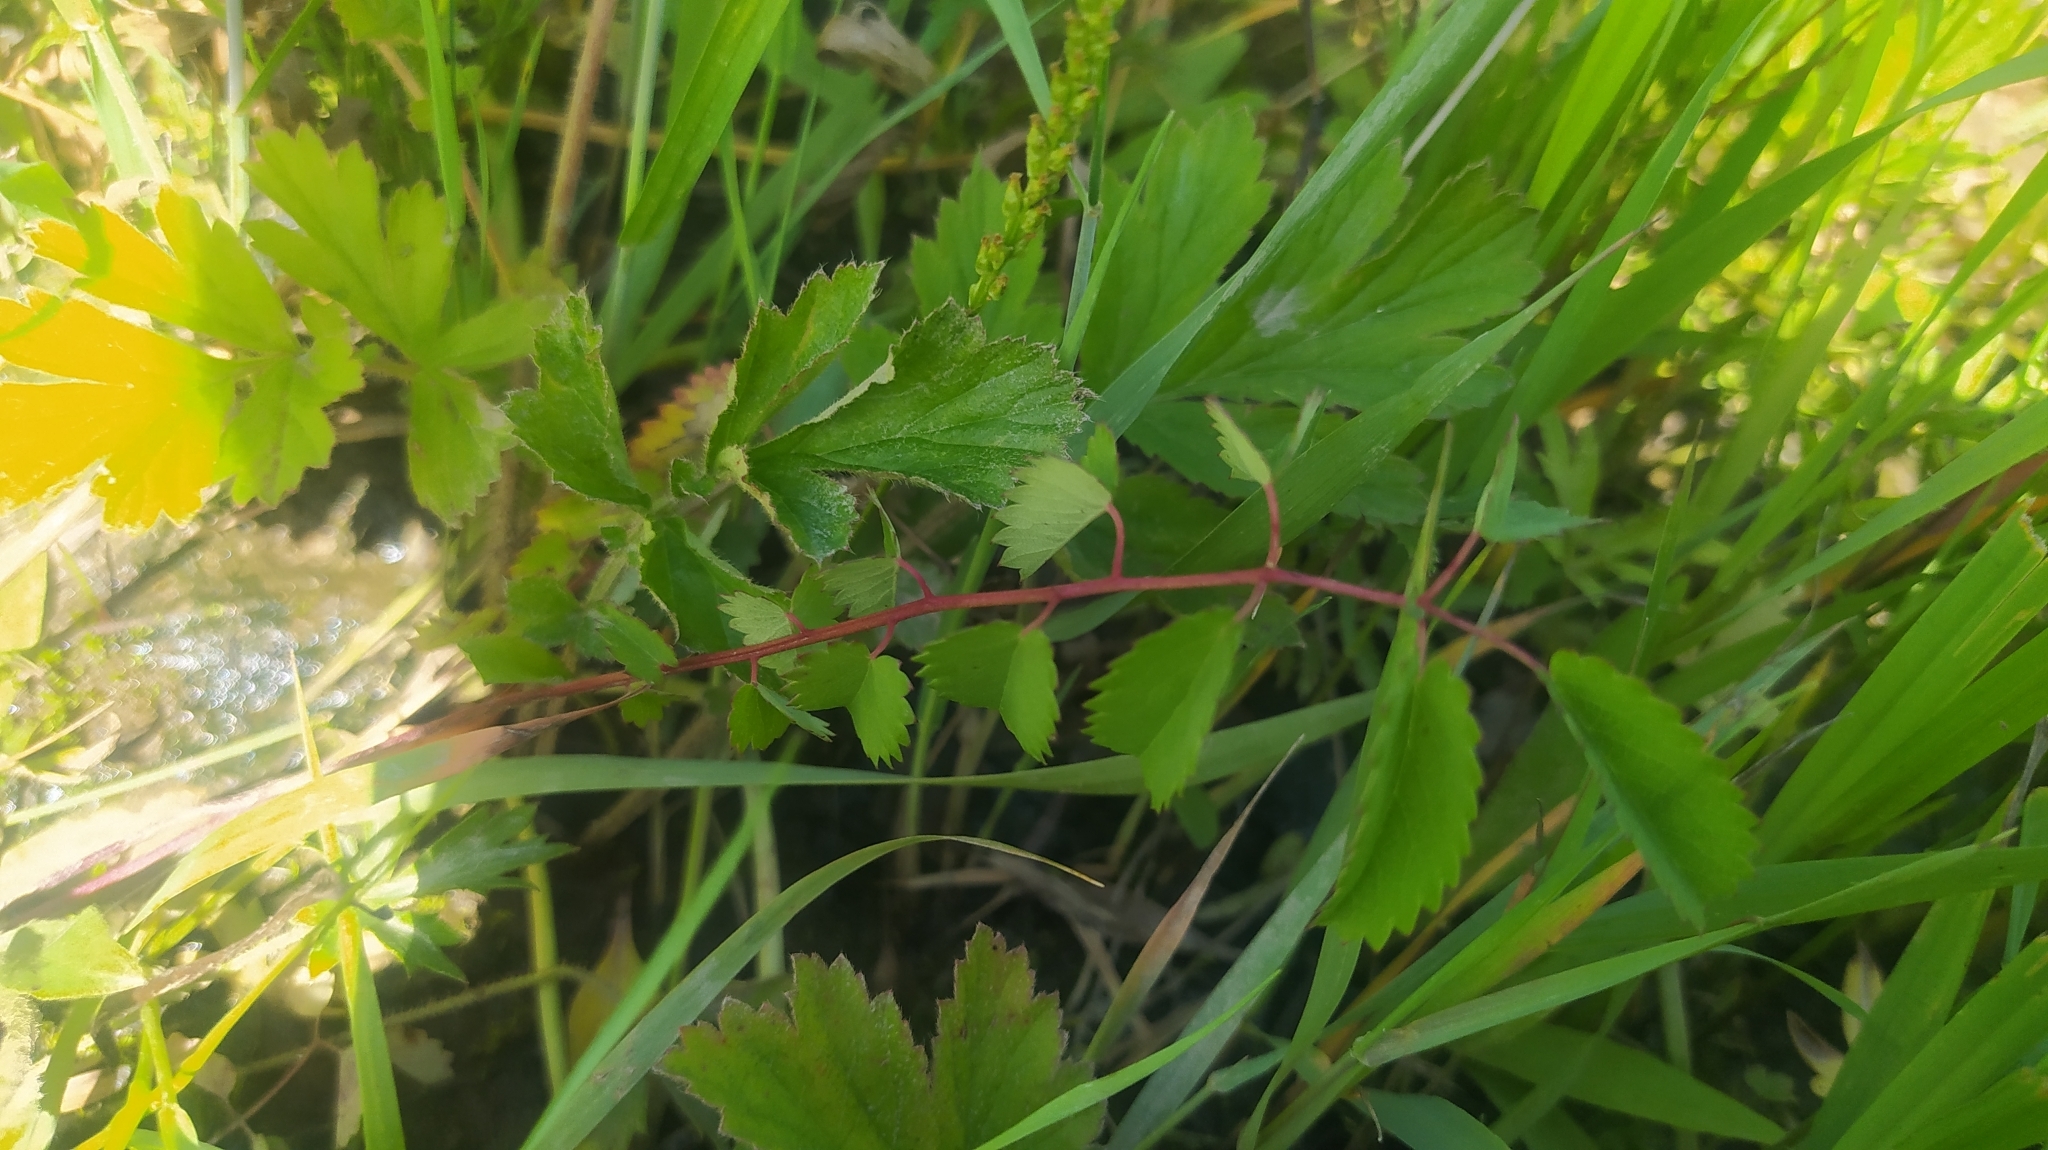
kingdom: Plantae
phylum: Tracheophyta
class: Magnoliopsida
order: Rosales
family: Rosaceae
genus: Sanguisorba
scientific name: Sanguisorba officinalis
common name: Great burnet
